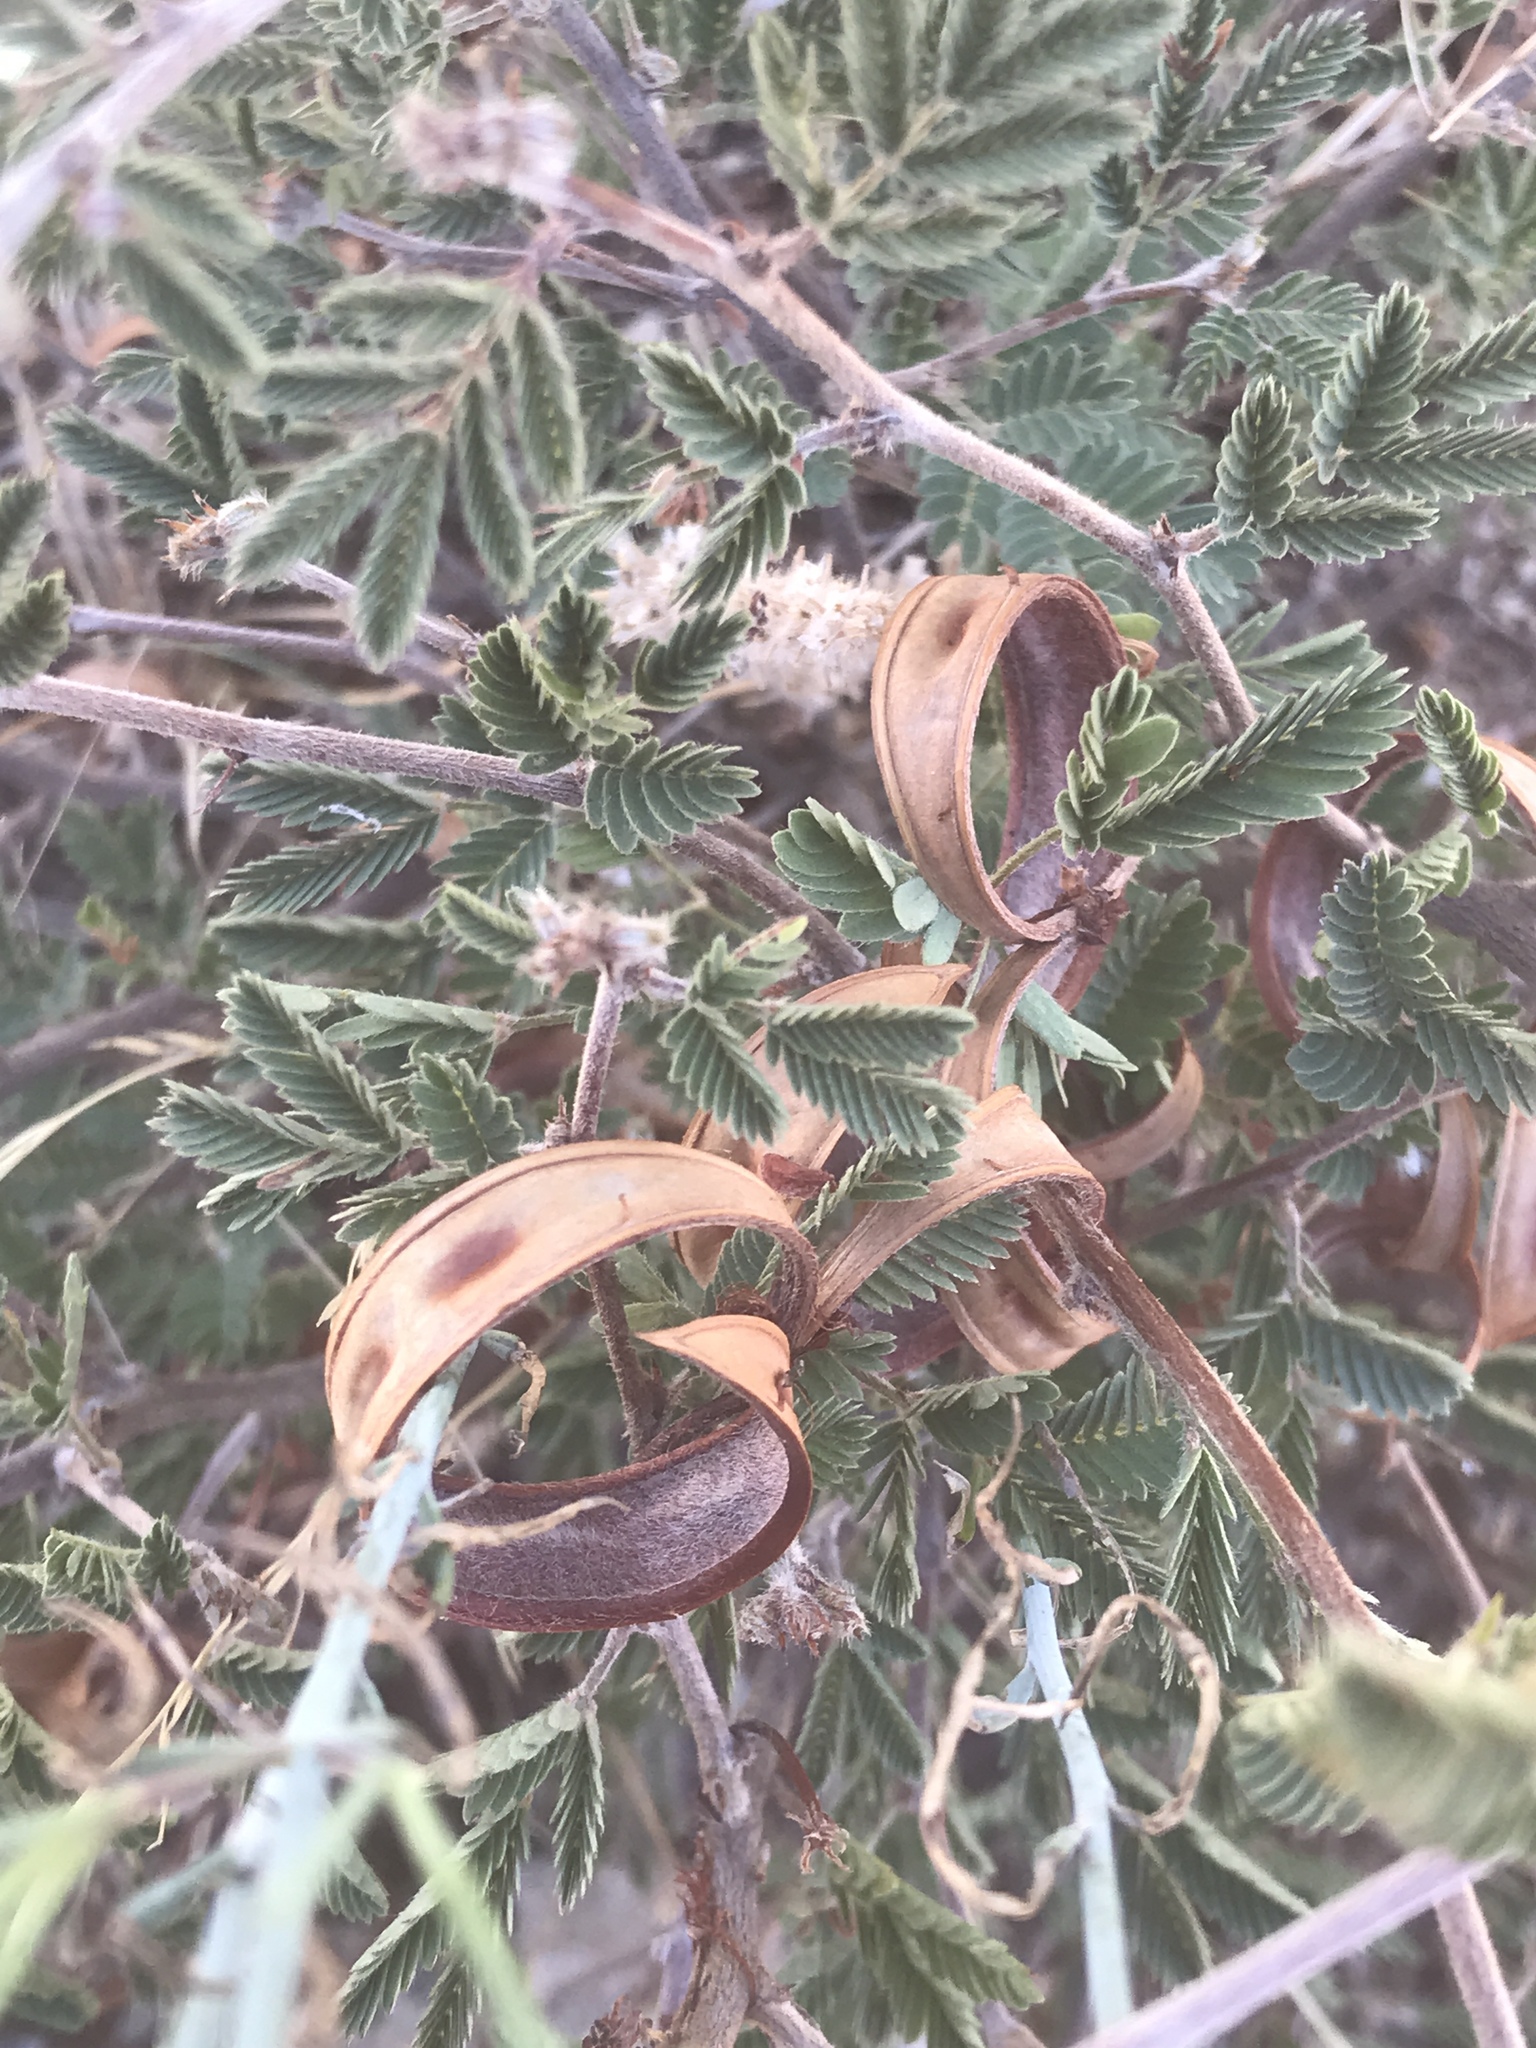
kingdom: Plantae
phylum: Tracheophyta
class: Magnoliopsida
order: Fabales
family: Fabaceae
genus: Calliandra
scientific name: Calliandra eriophylla
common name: Fairy-duster
